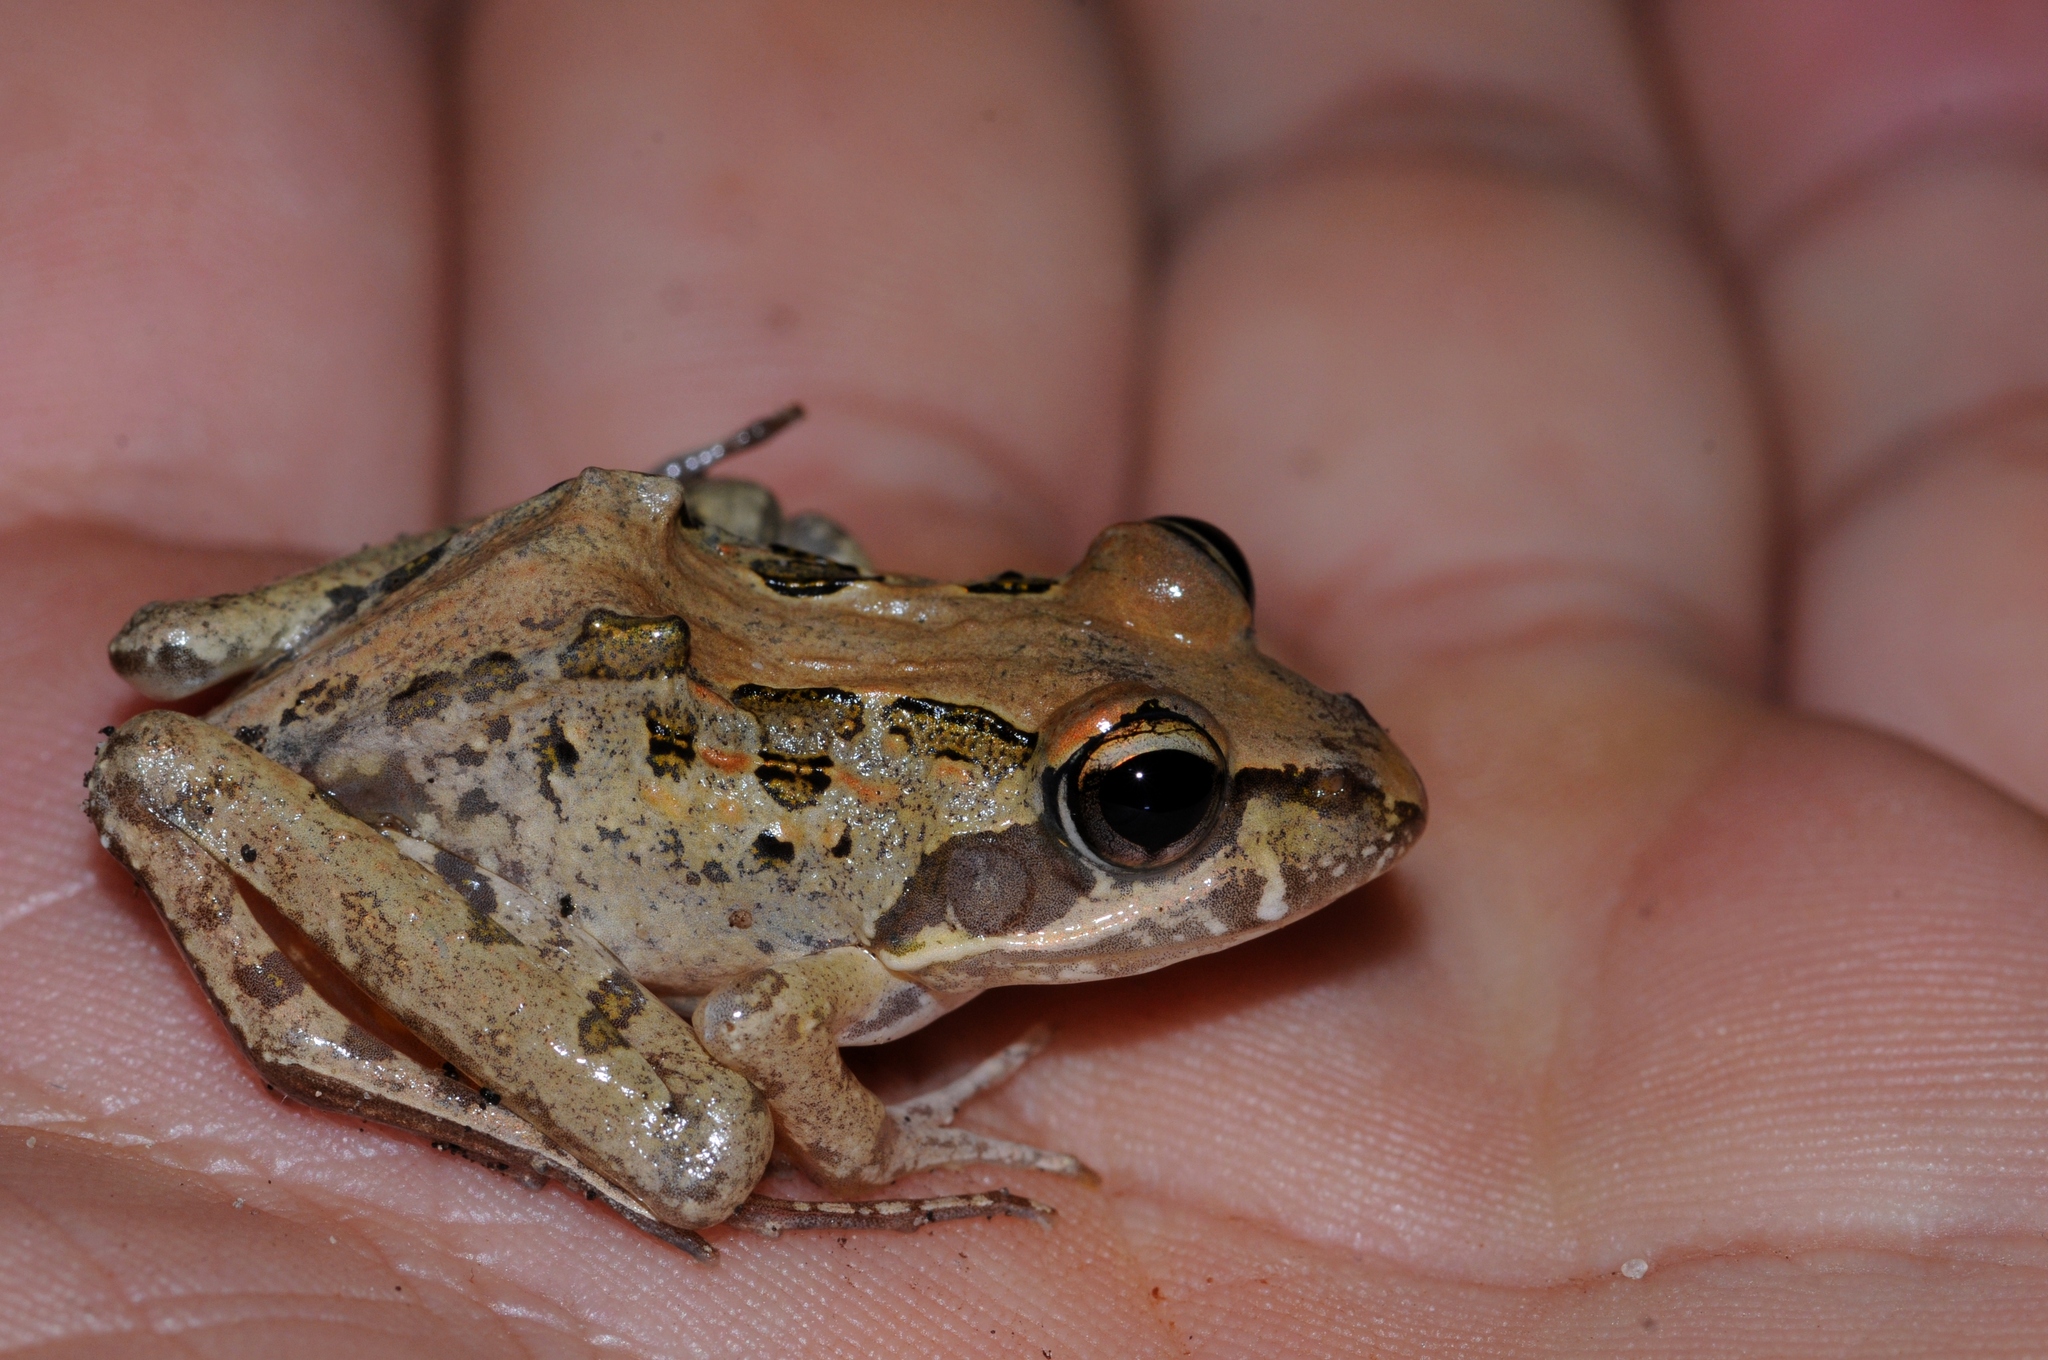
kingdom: Animalia
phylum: Chordata
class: Amphibia
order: Anura
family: Pyxicephalidae
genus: Strongylopus
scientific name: Strongylopus grayii
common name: Gray's stream frog
